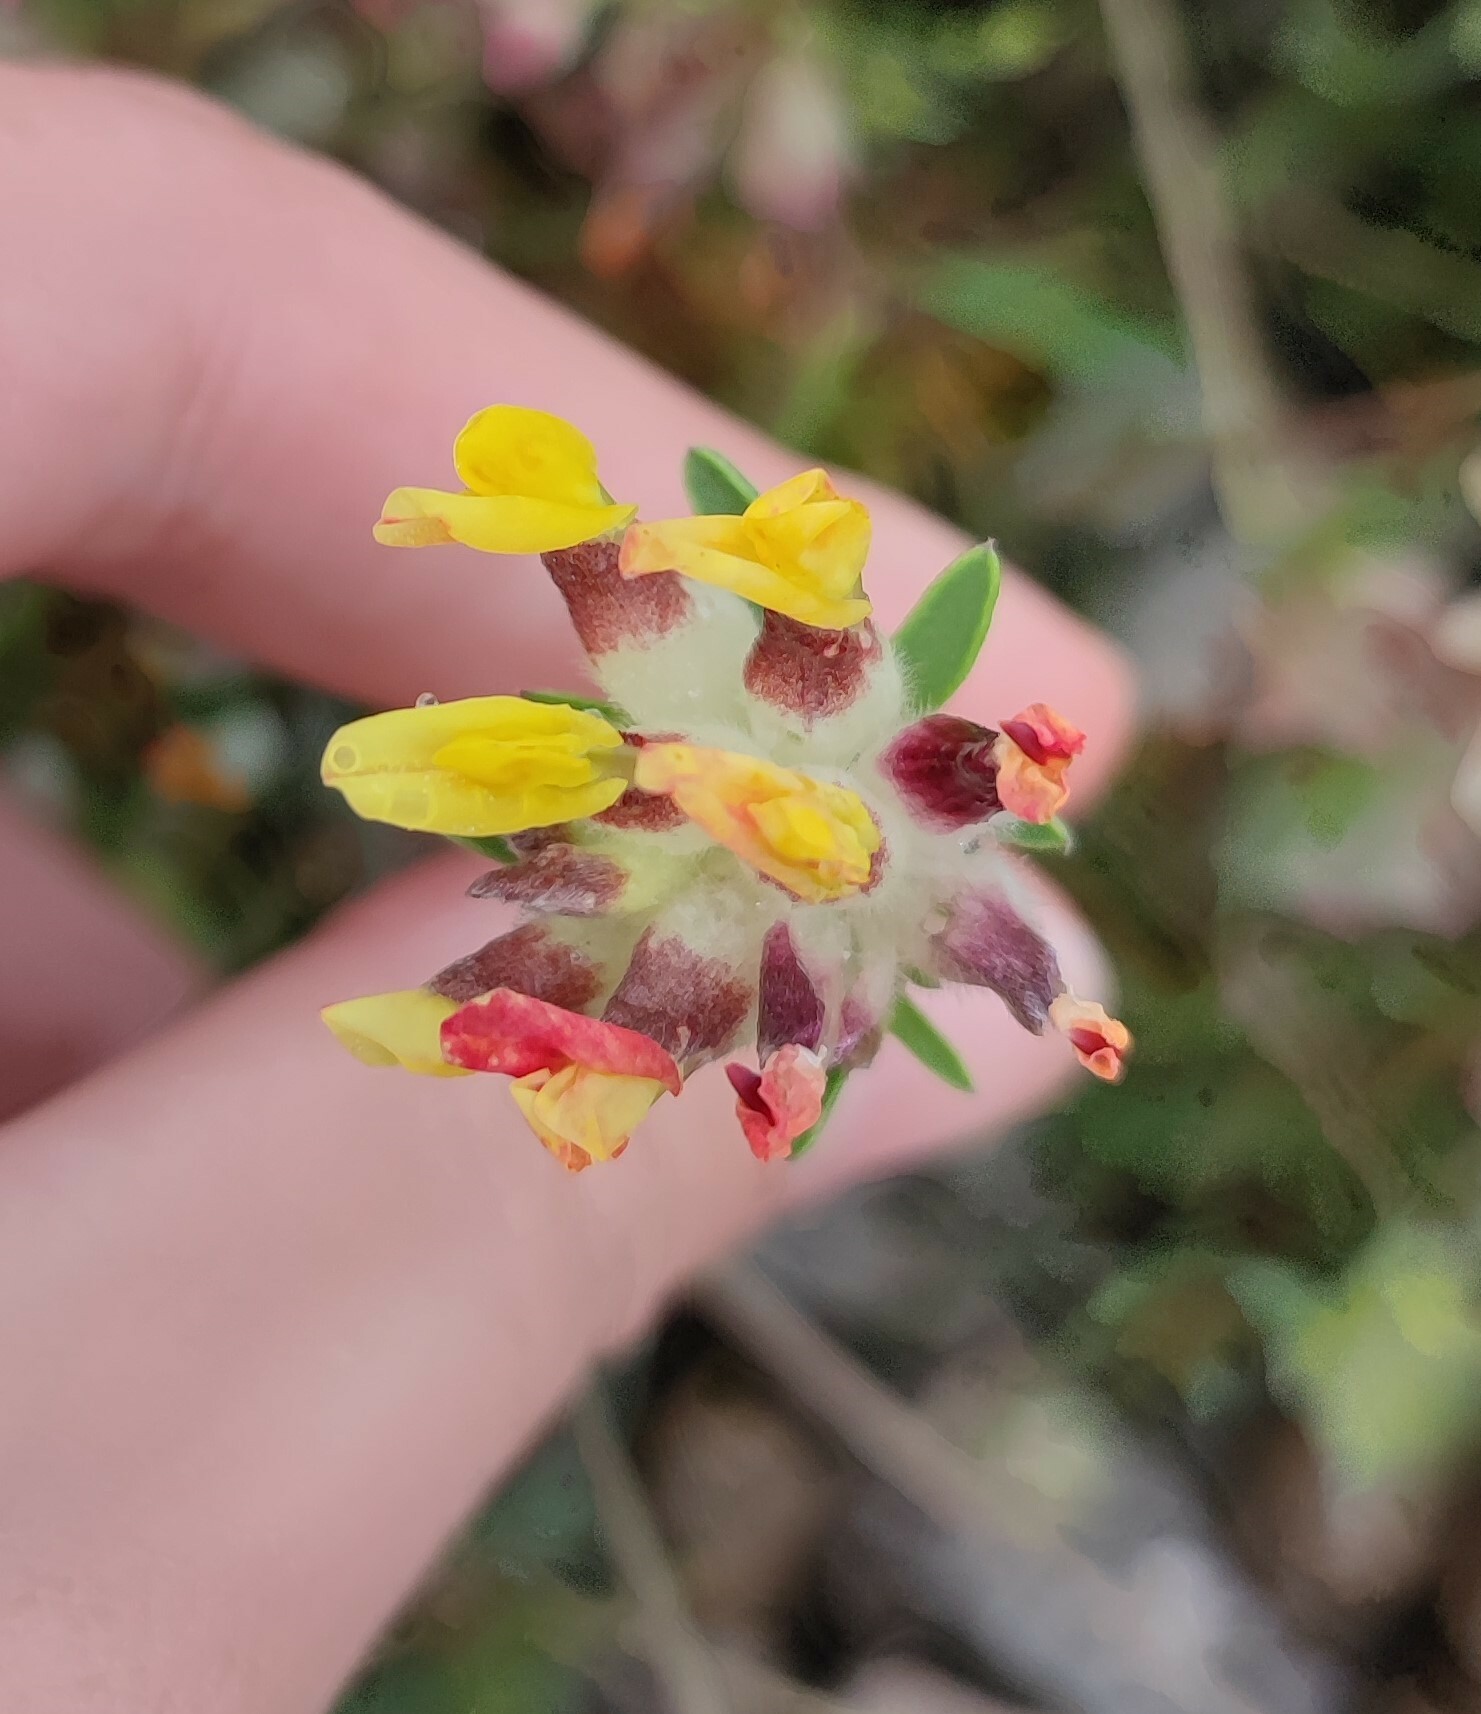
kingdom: Plantae
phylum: Tracheophyta
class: Magnoliopsida
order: Fabales
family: Fabaceae
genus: Anthyllis
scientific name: Anthyllis vulneraria
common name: Kidney vetch
